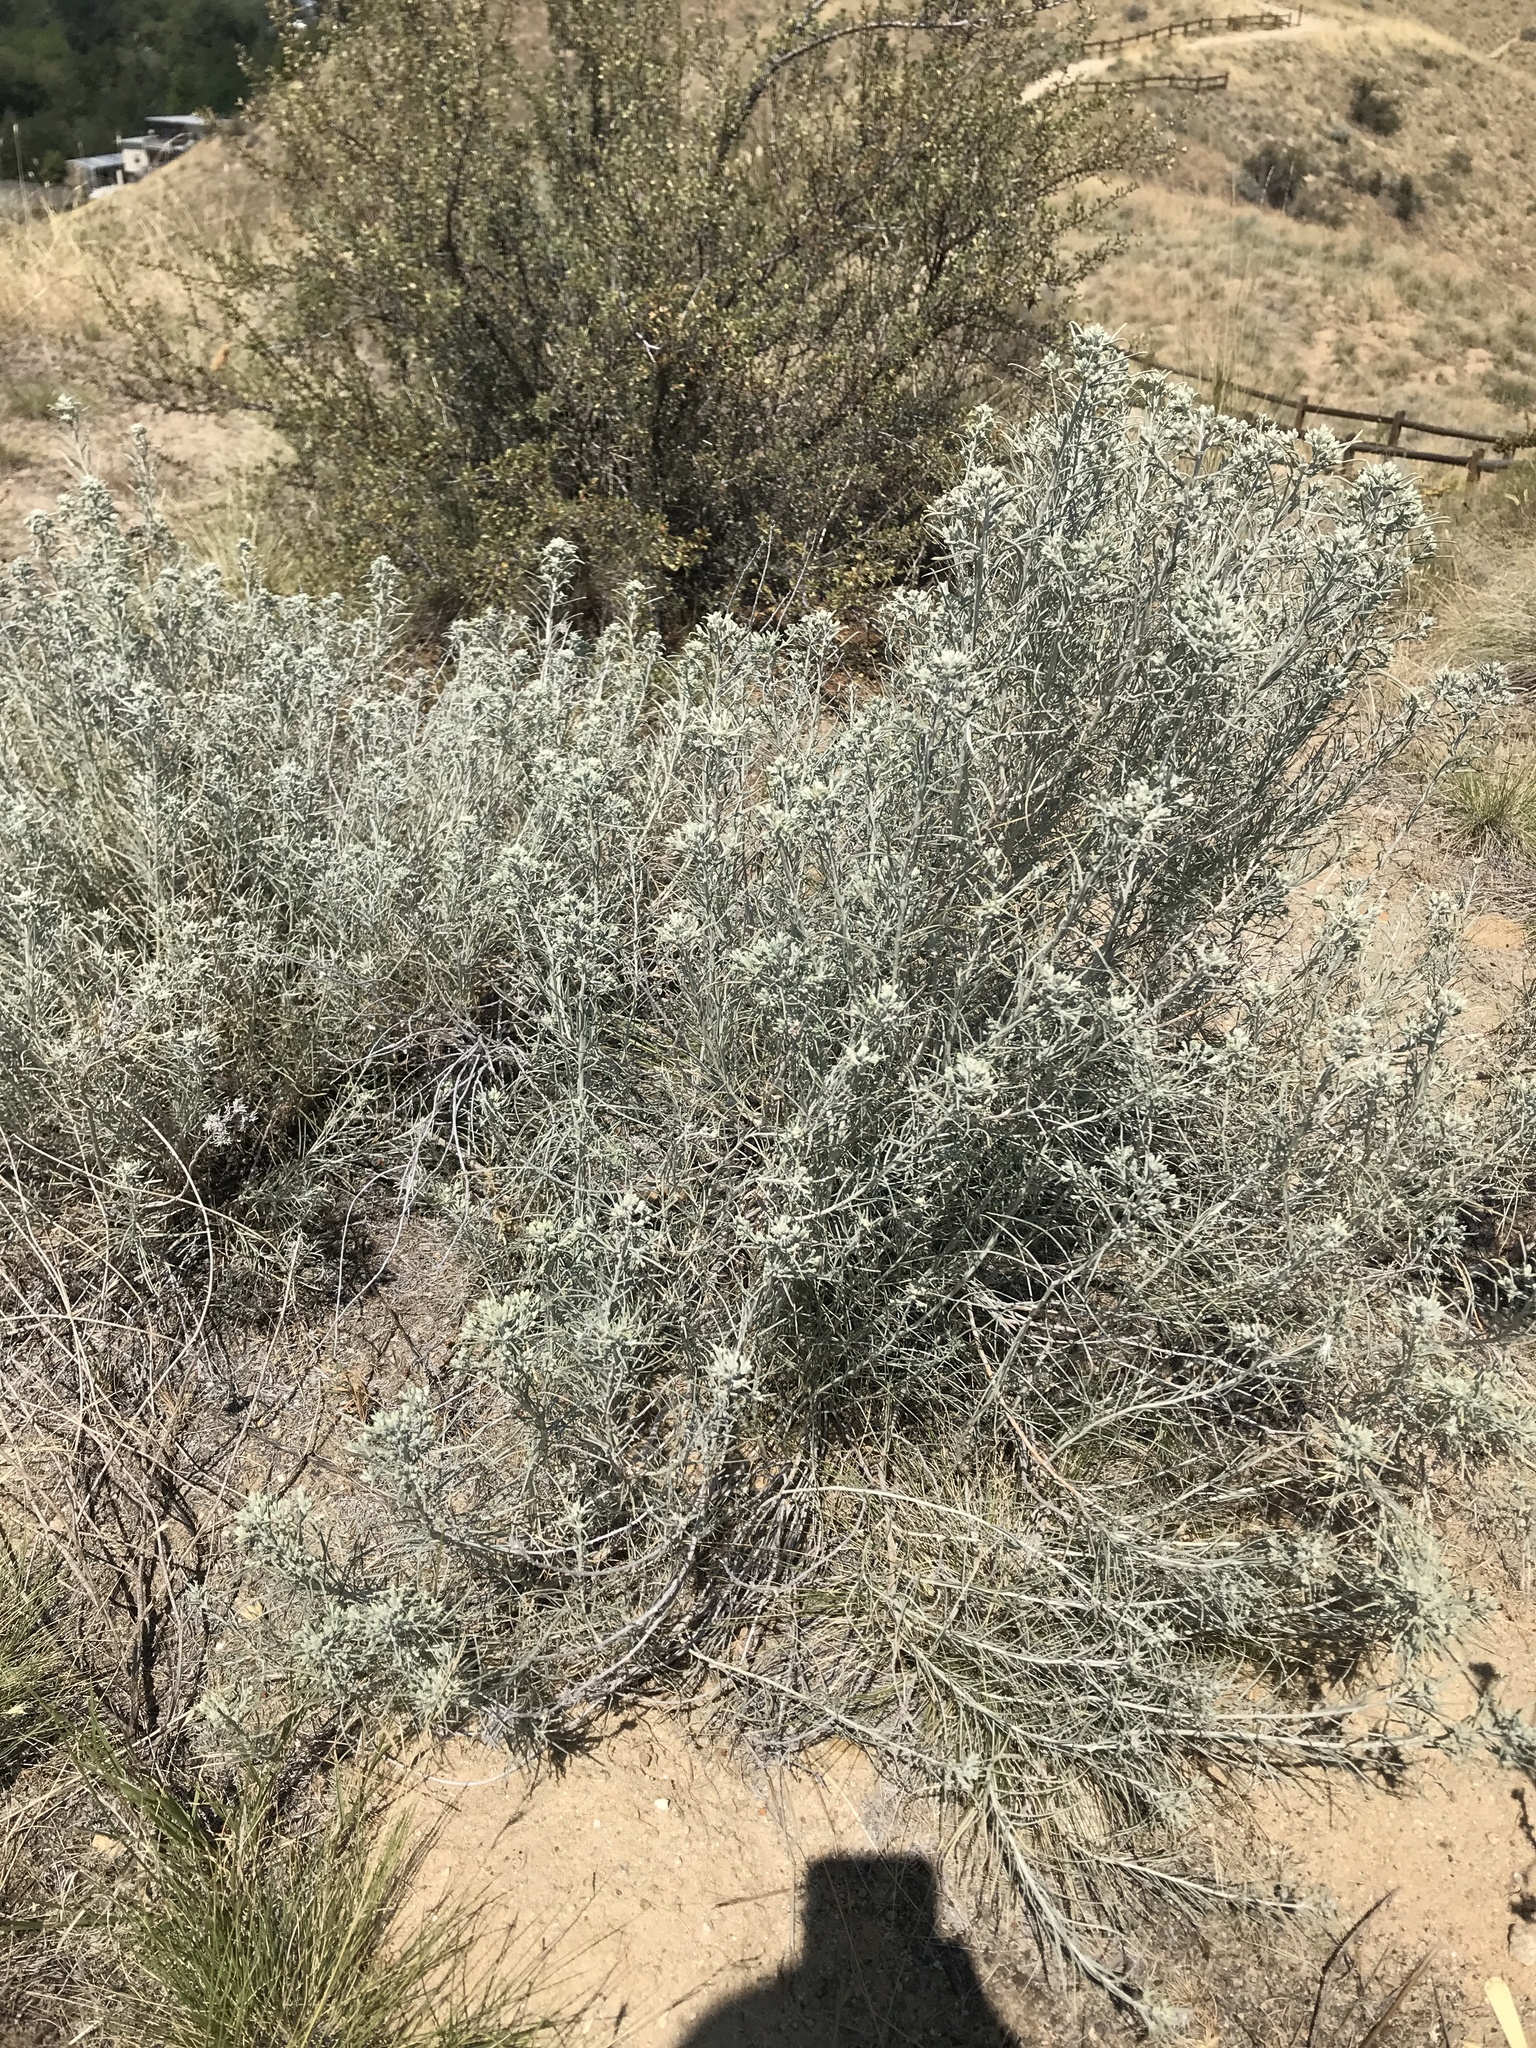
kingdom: Plantae
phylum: Tracheophyta
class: Magnoliopsida
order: Asterales
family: Asteraceae
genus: Ericameria
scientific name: Ericameria nauseosa
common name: Rubber rabbitbrush
